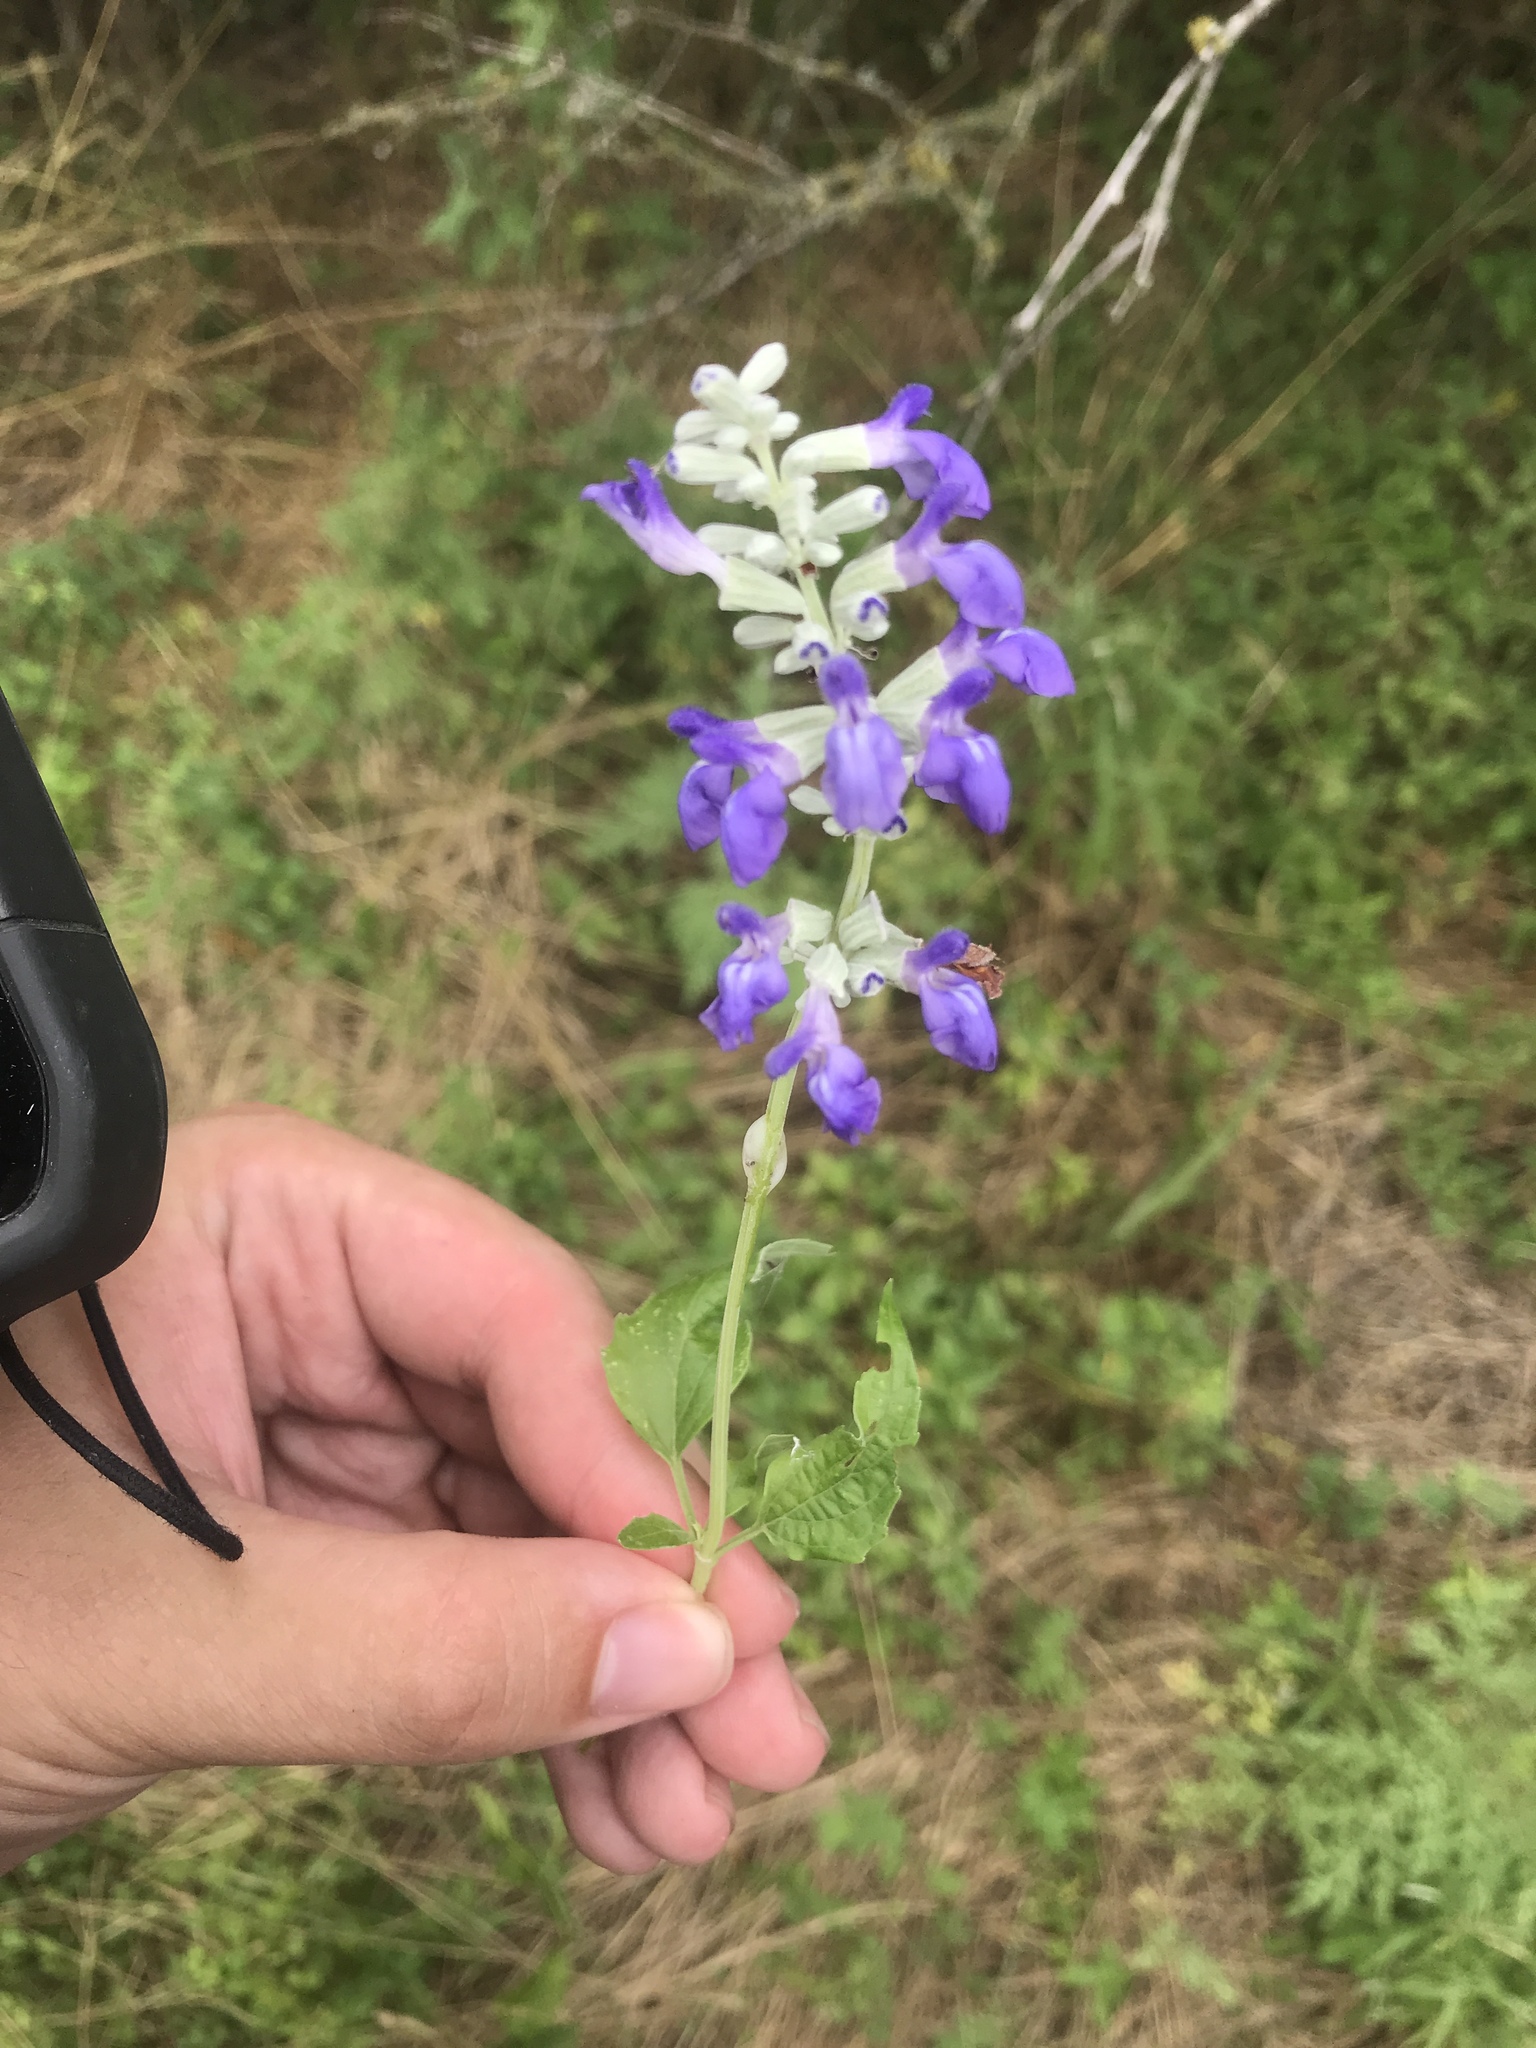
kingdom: Plantae
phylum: Tracheophyta
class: Magnoliopsida
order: Lamiales
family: Lamiaceae
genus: Salvia
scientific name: Salvia farinacea
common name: Mealy sage
